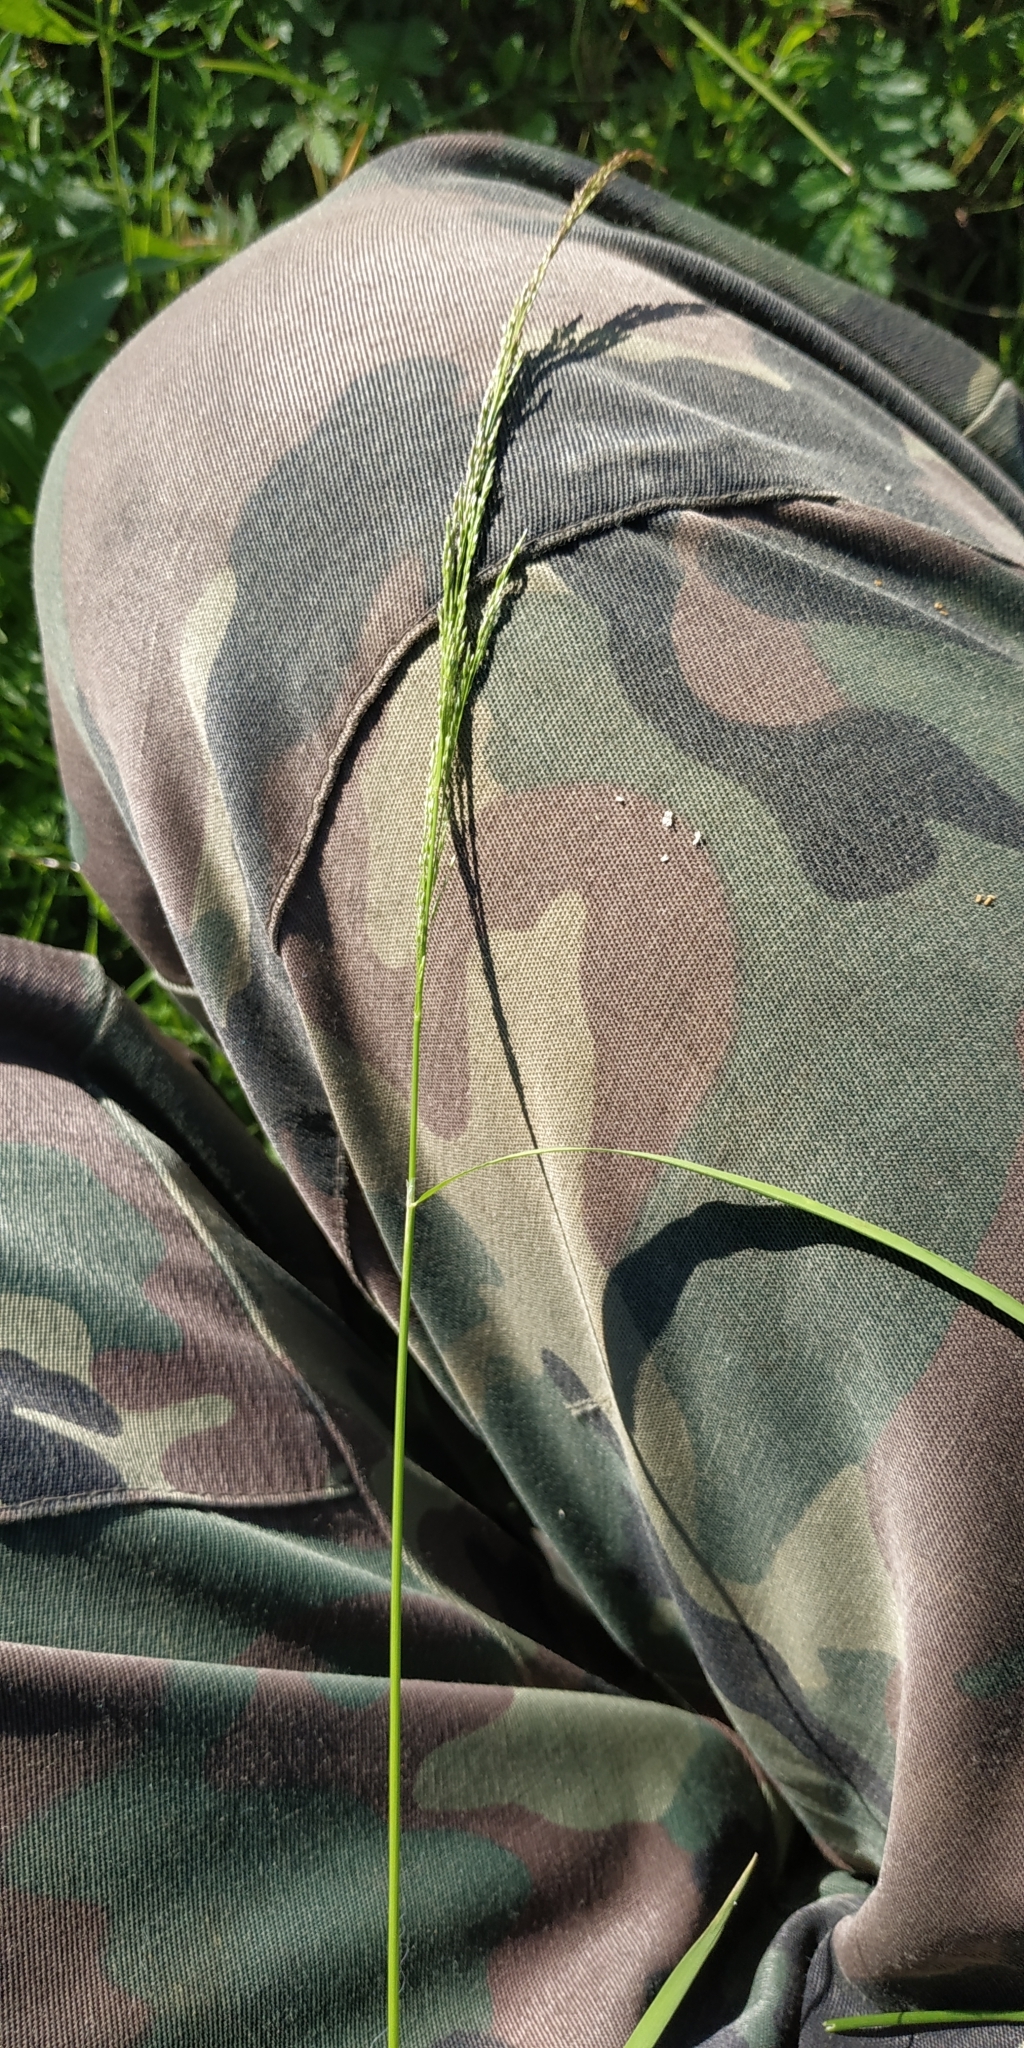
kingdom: Plantae
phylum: Tracheophyta
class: Liliopsida
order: Poales
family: Poaceae
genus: Agrostis
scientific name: Agrostis clavata
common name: Clavate bent
